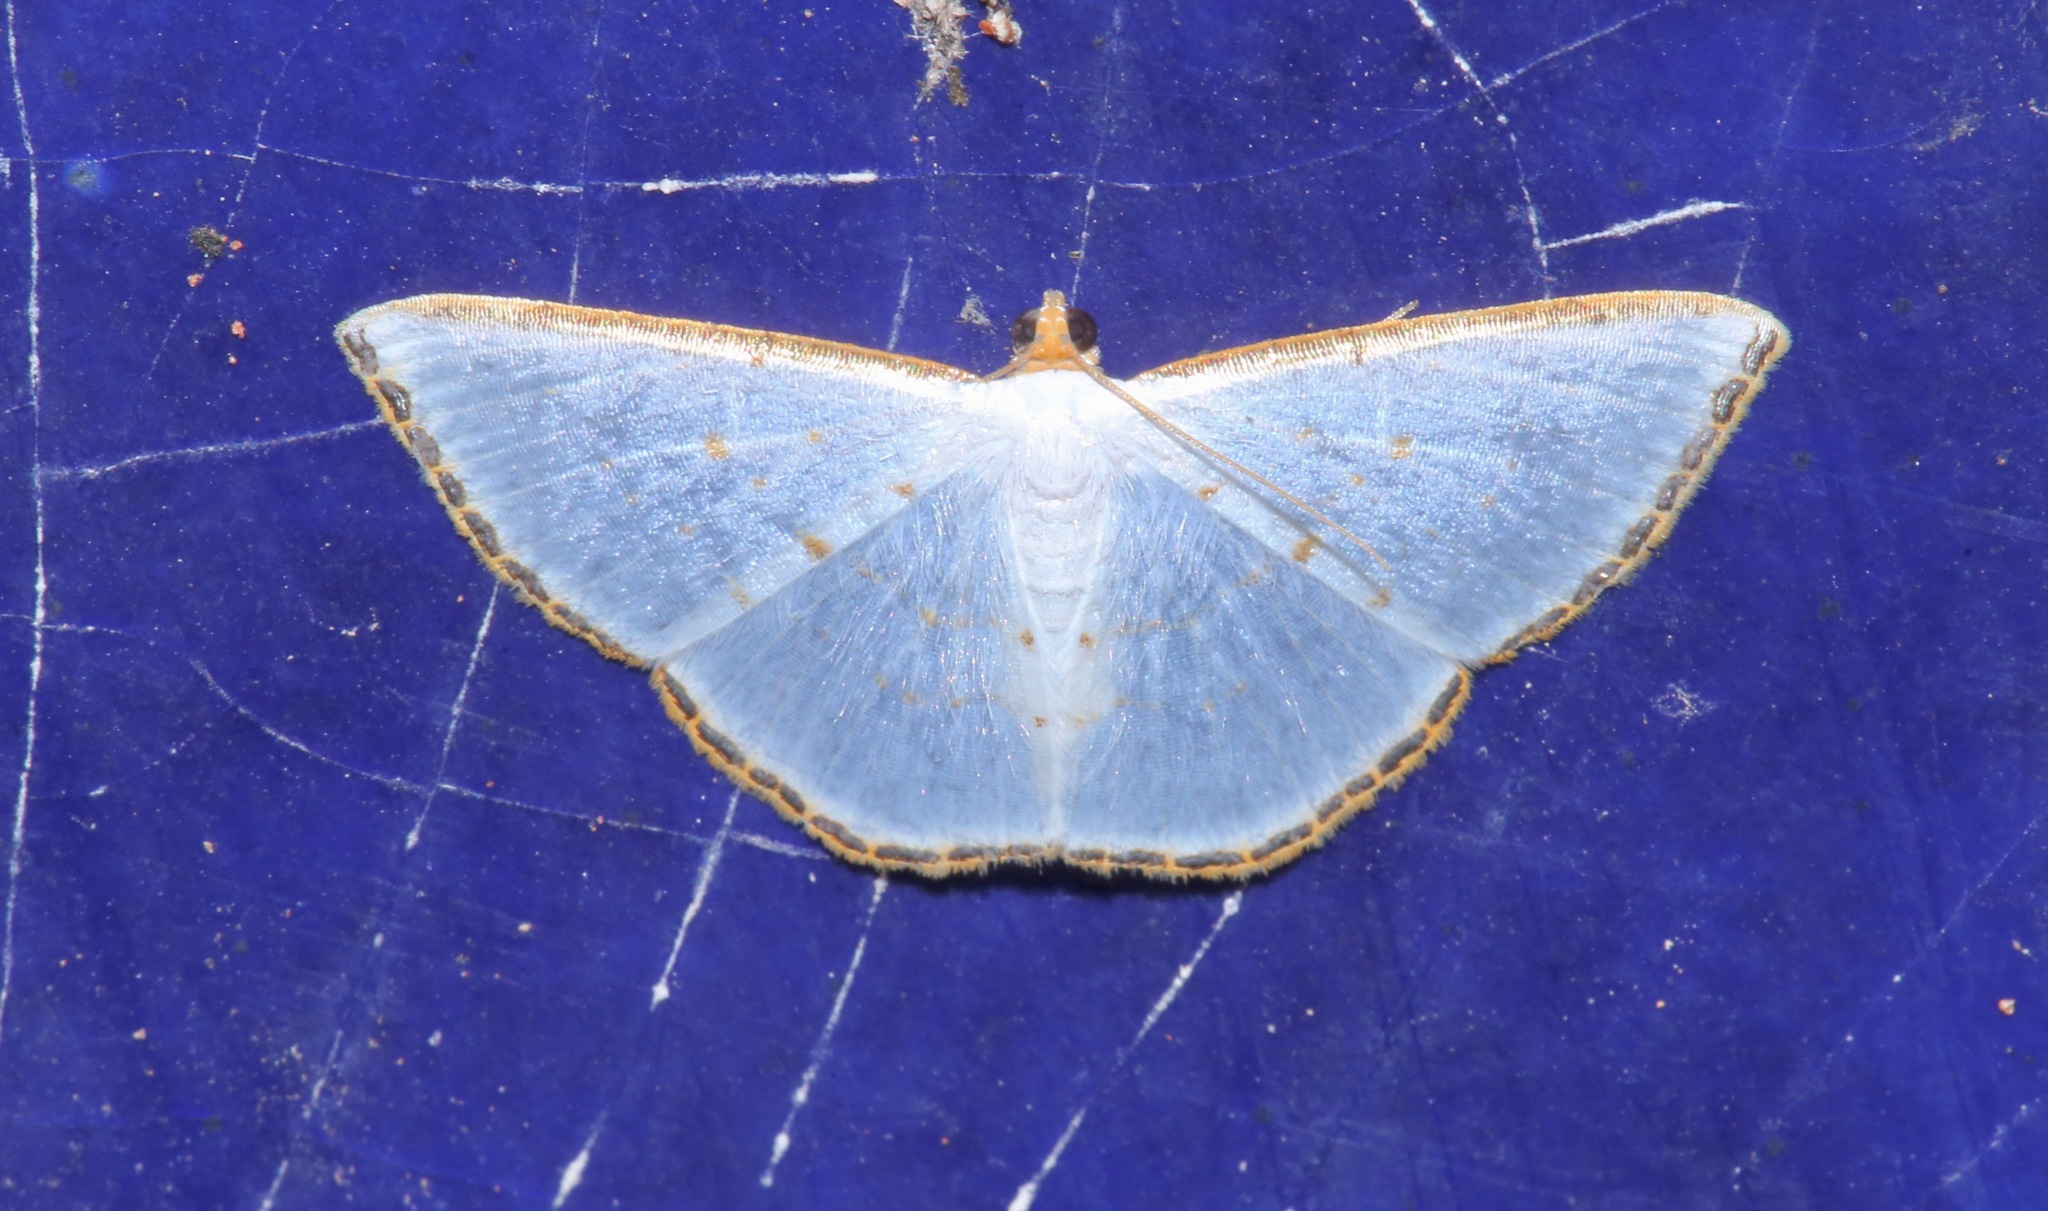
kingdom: Animalia
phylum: Arthropoda
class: Insecta
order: Lepidoptera
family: Geometridae
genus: Leuciris
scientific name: Leuciris fimbriaria
